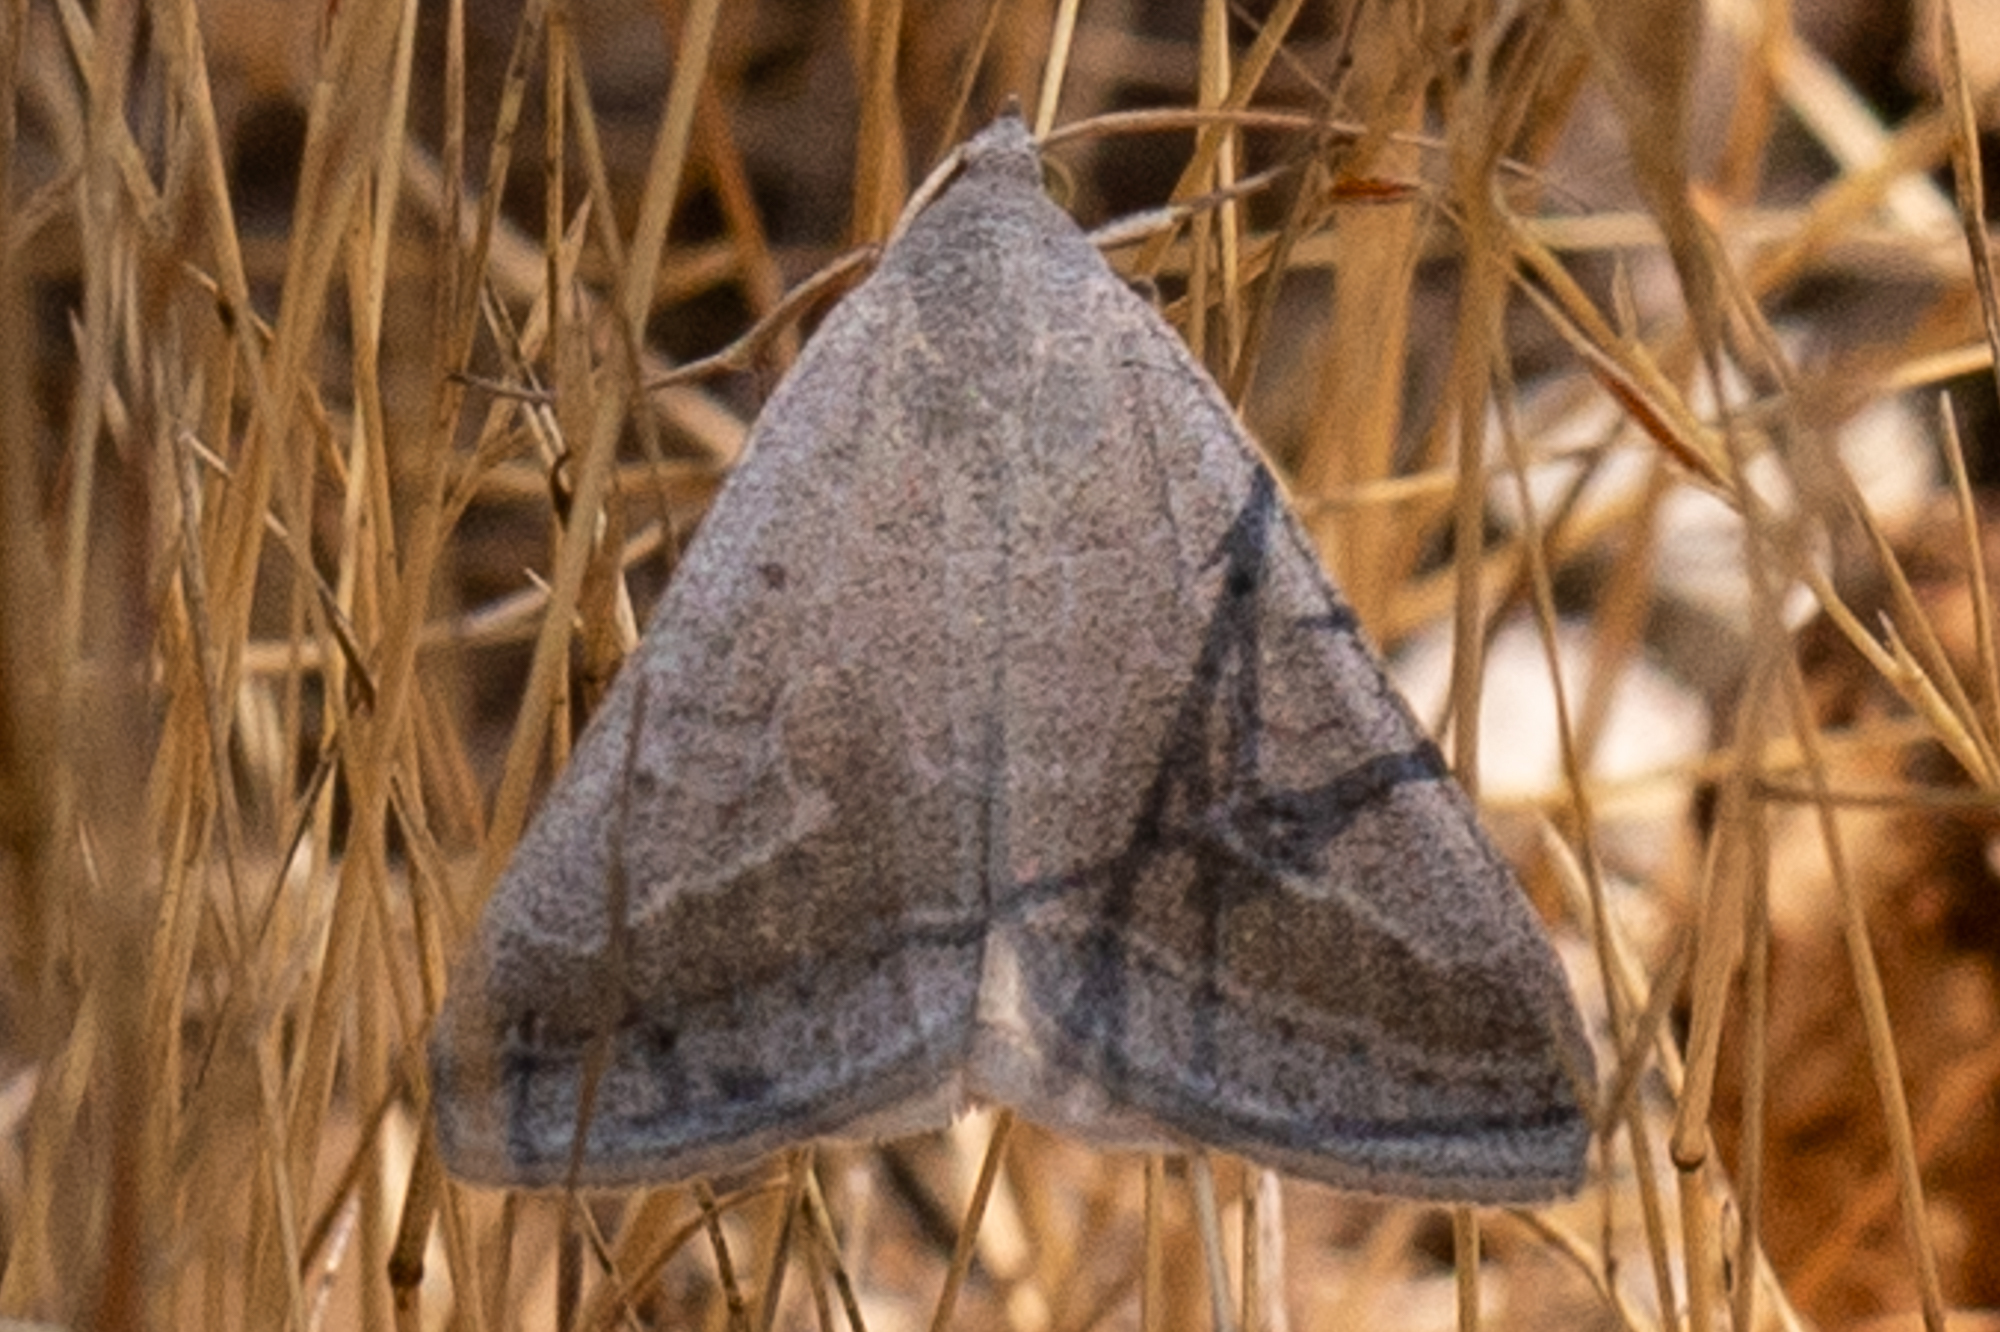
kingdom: Animalia
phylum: Arthropoda
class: Insecta
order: Lepidoptera
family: Erebidae
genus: Caenurgia
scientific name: Caenurgia togataria
